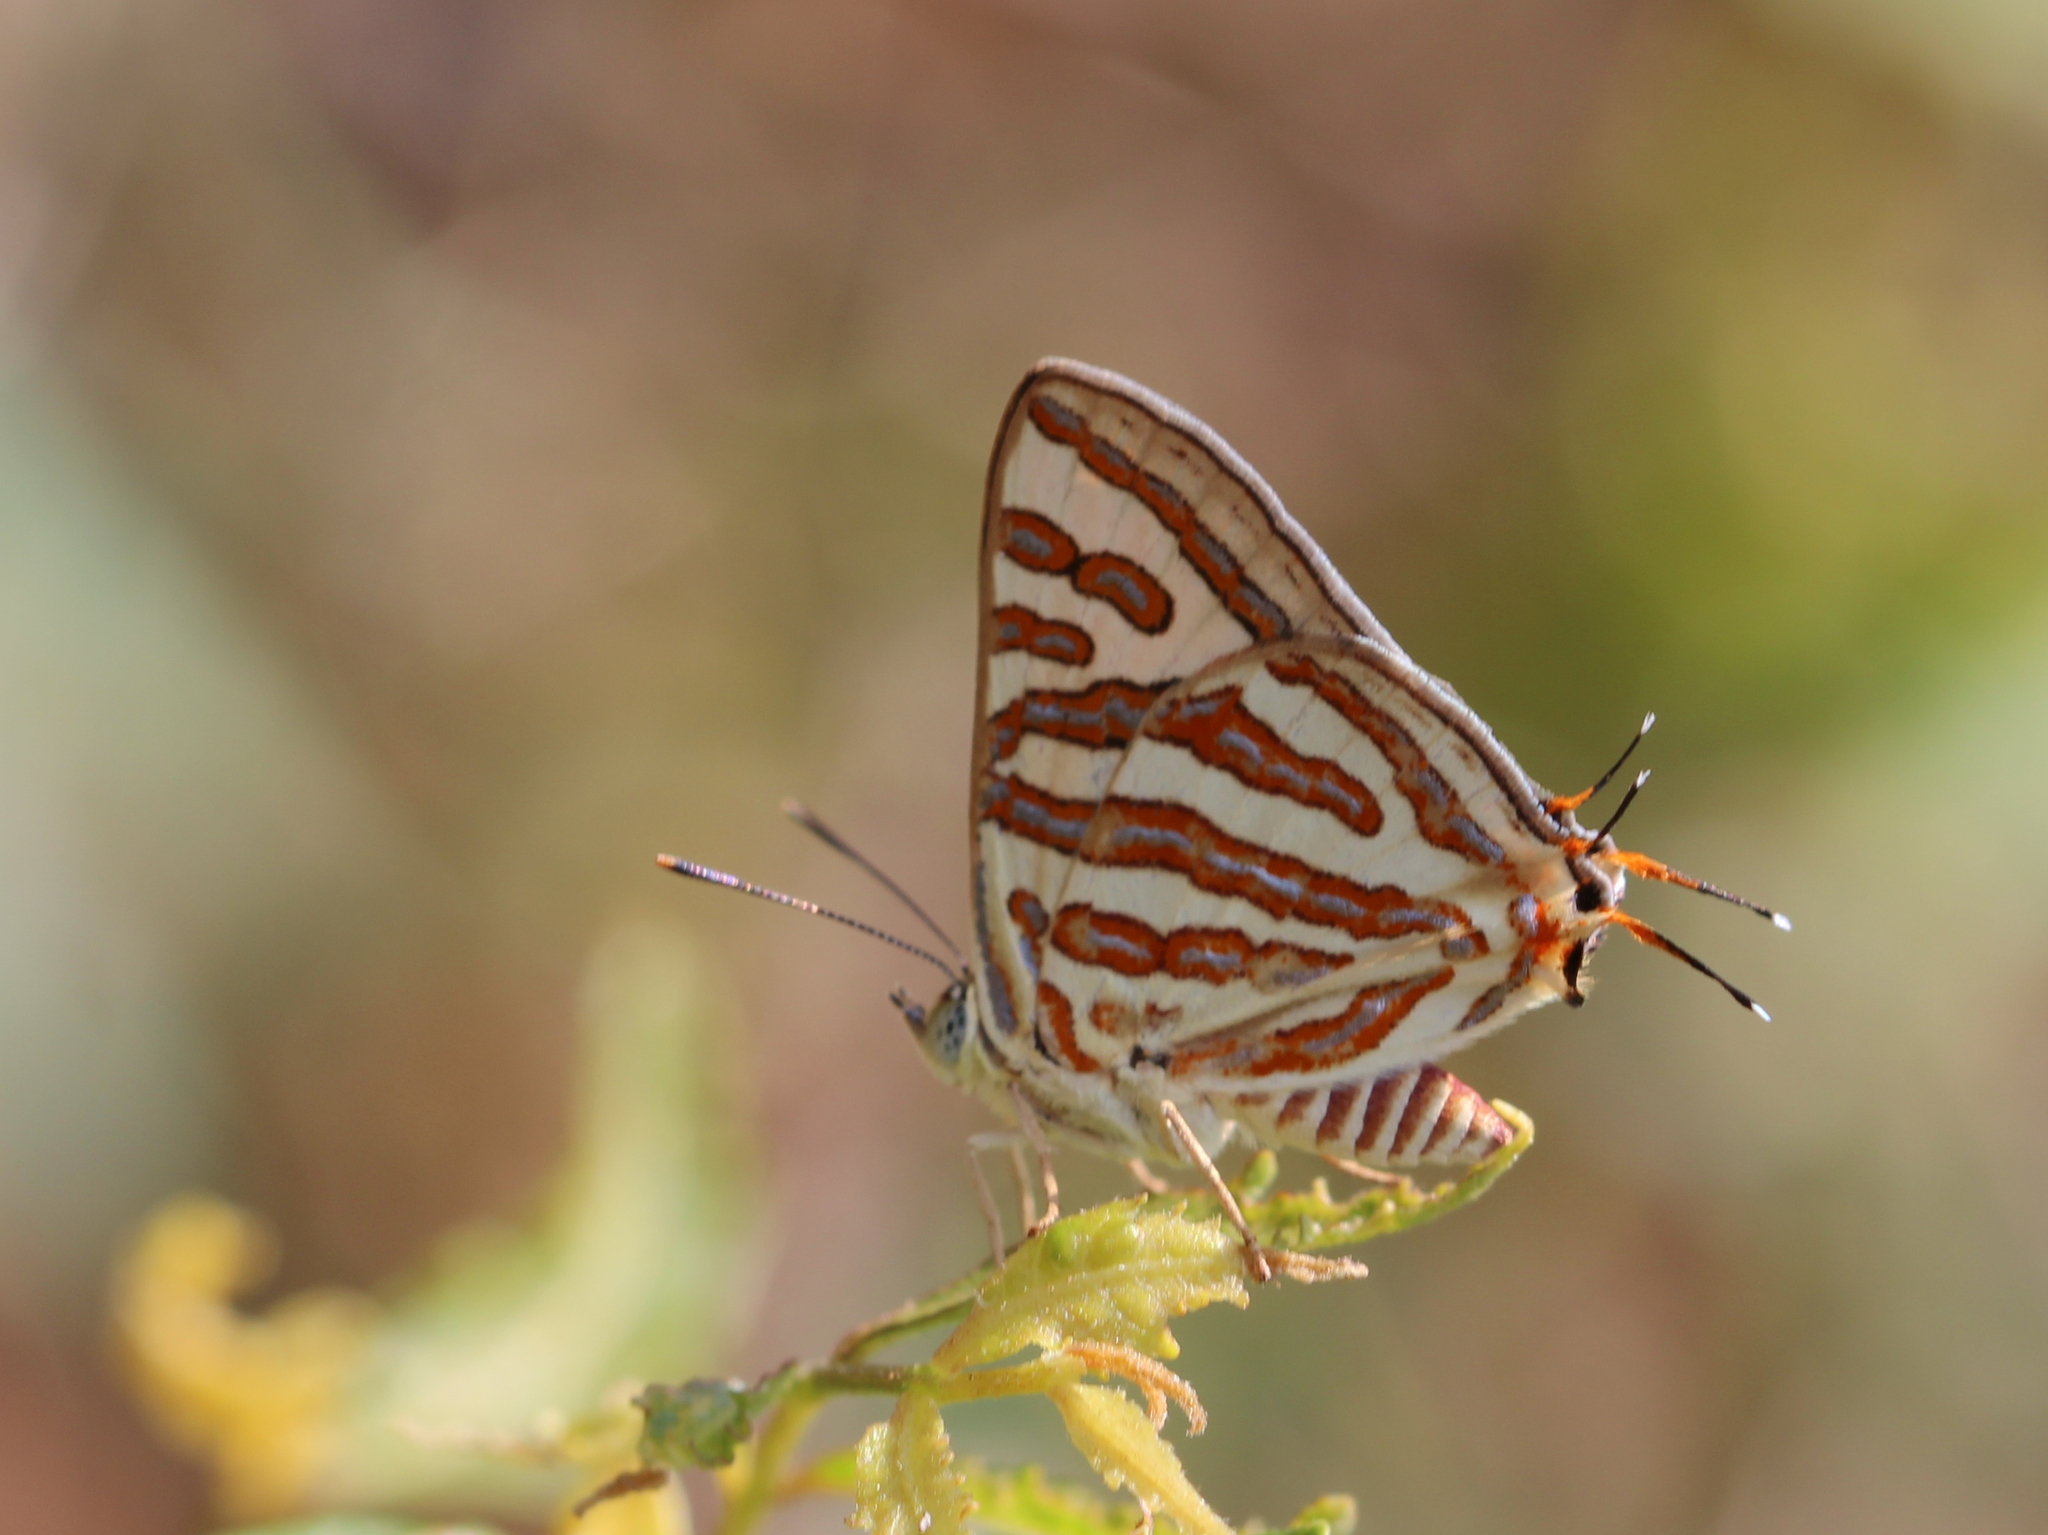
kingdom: Animalia
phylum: Arthropoda
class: Insecta
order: Lepidoptera
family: Lycaenidae
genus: Cigaritis
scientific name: Cigaritis vulcanus
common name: Common silverline
